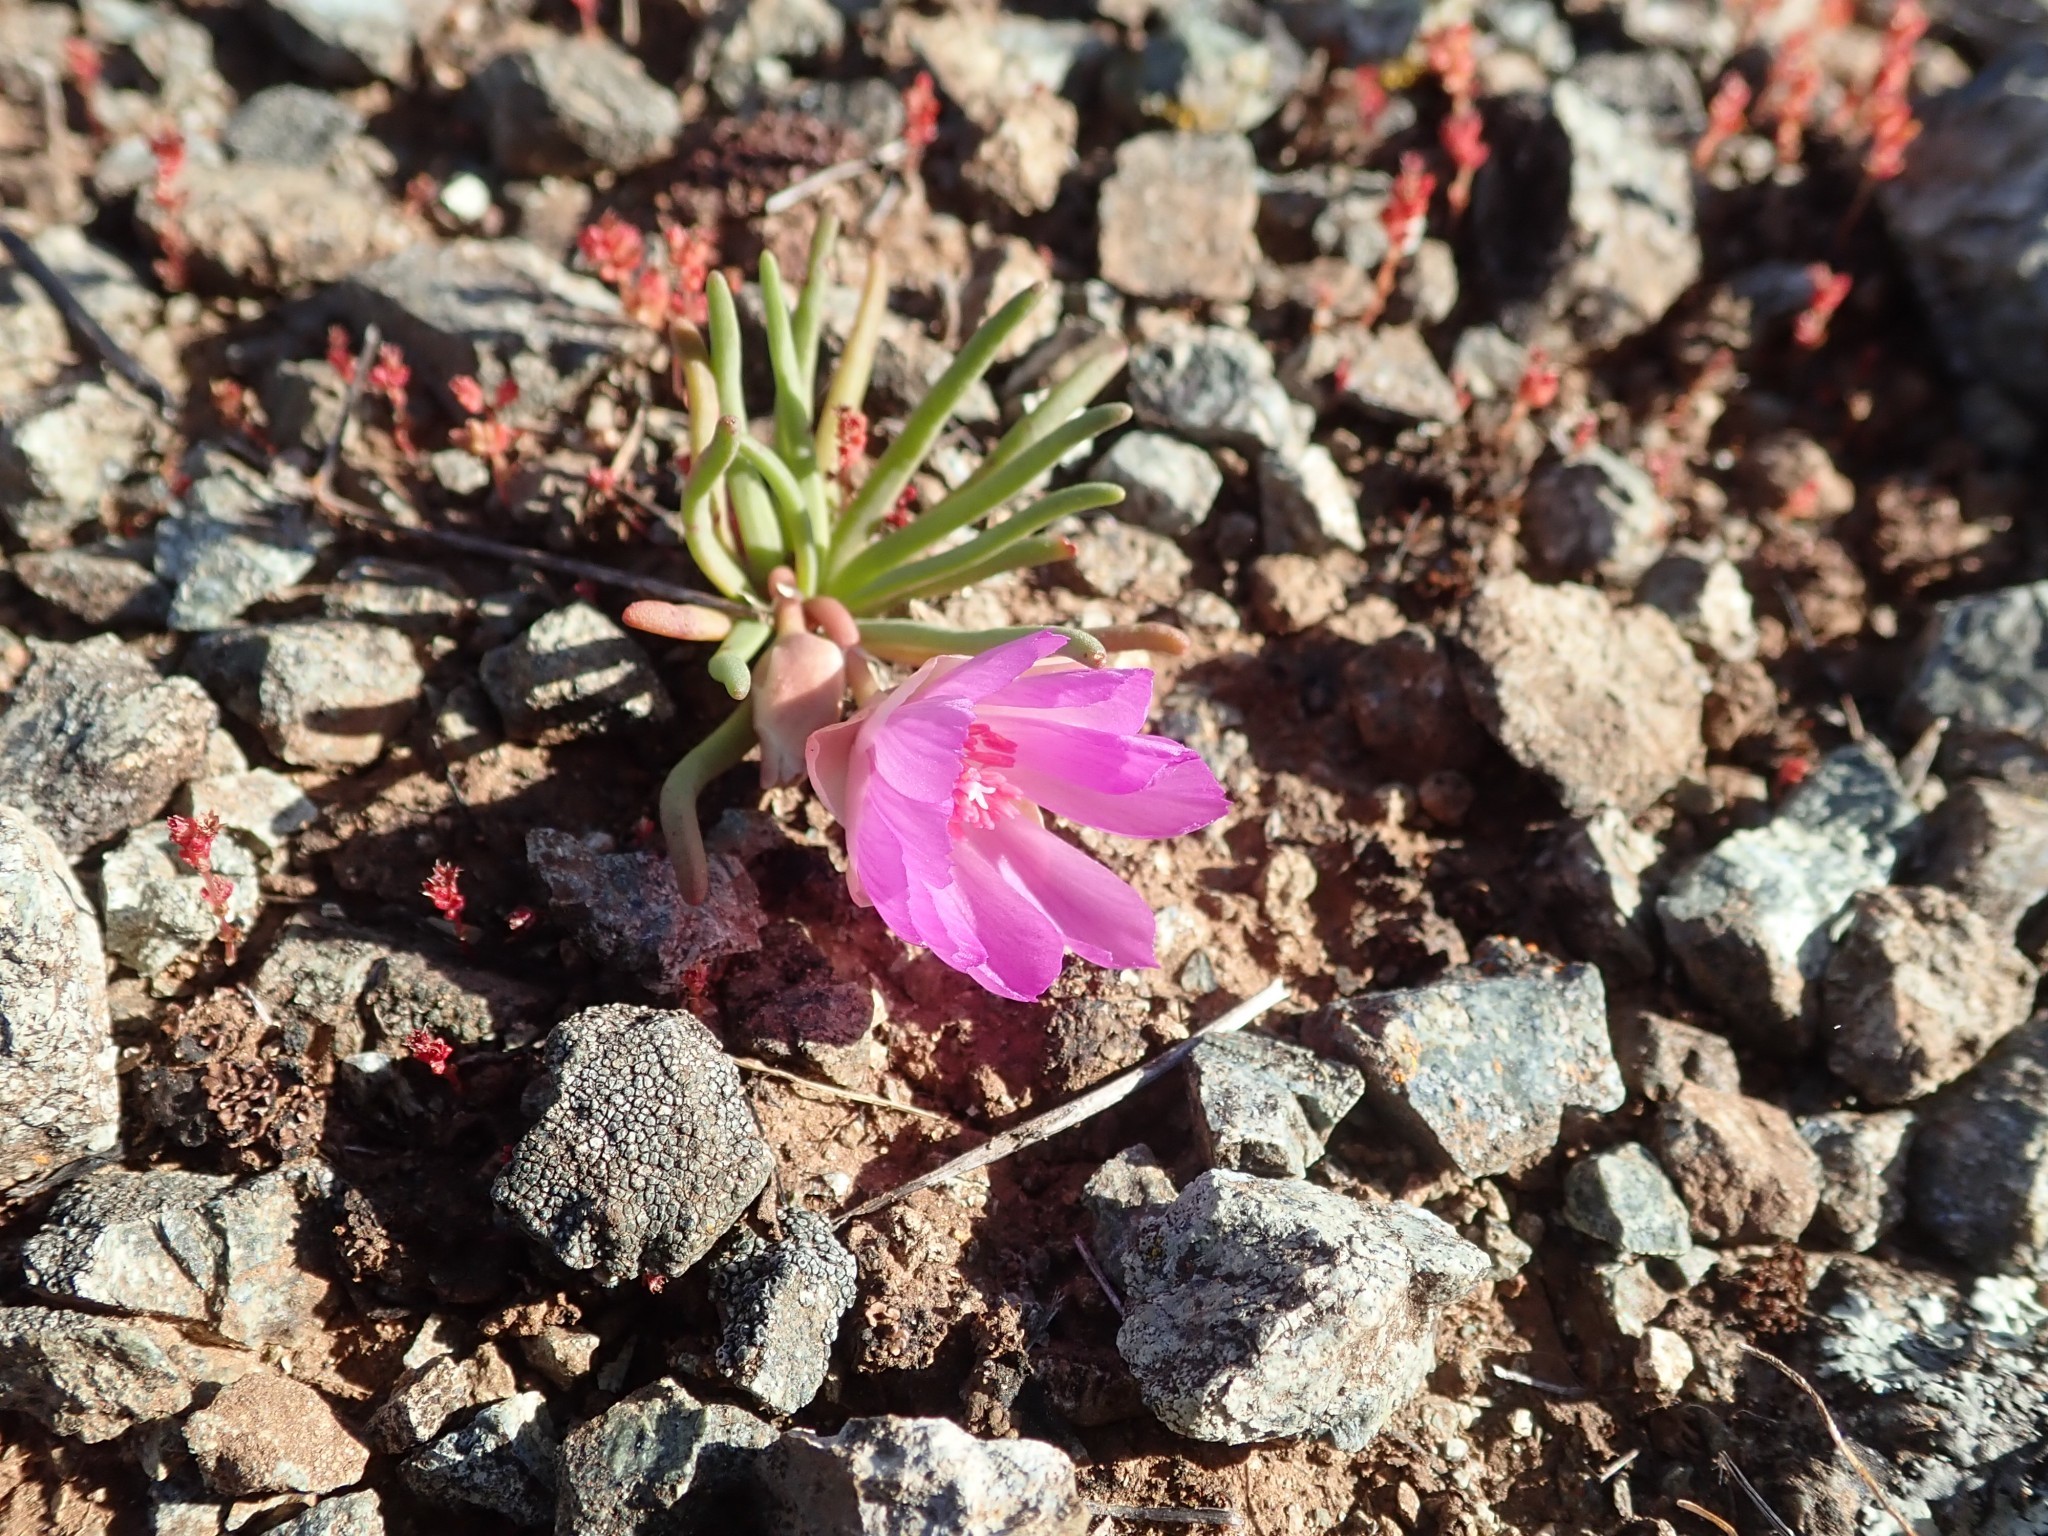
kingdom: Plantae
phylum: Tracheophyta
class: Magnoliopsida
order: Caryophyllales
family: Montiaceae
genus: Lewisia
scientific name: Lewisia rediviva
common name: Bitter-root
